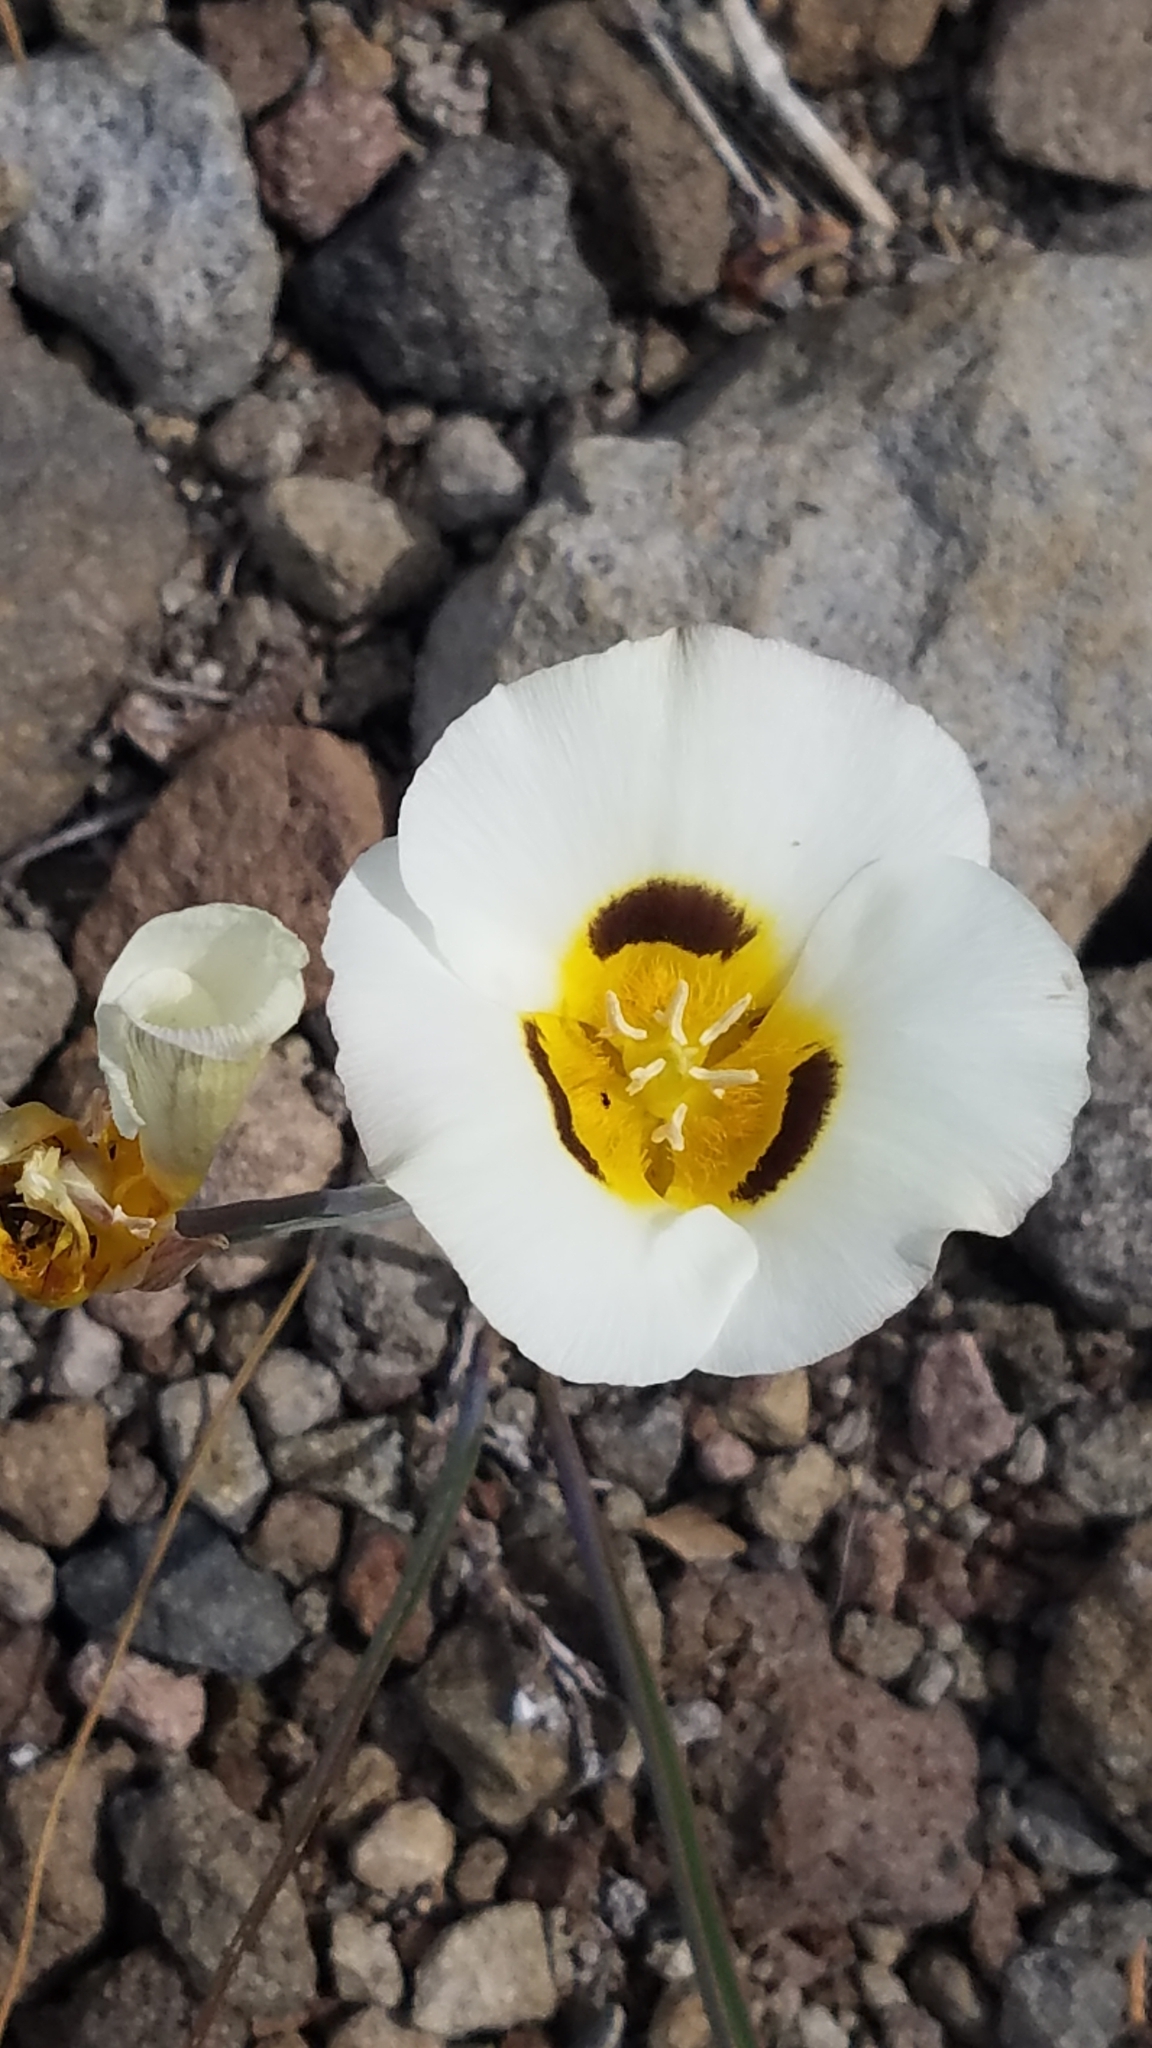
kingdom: Plantae
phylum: Tracheophyta
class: Liliopsida
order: Liliales
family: Liliaceae
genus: Calochortus
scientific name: Calochortus leichtlinii
